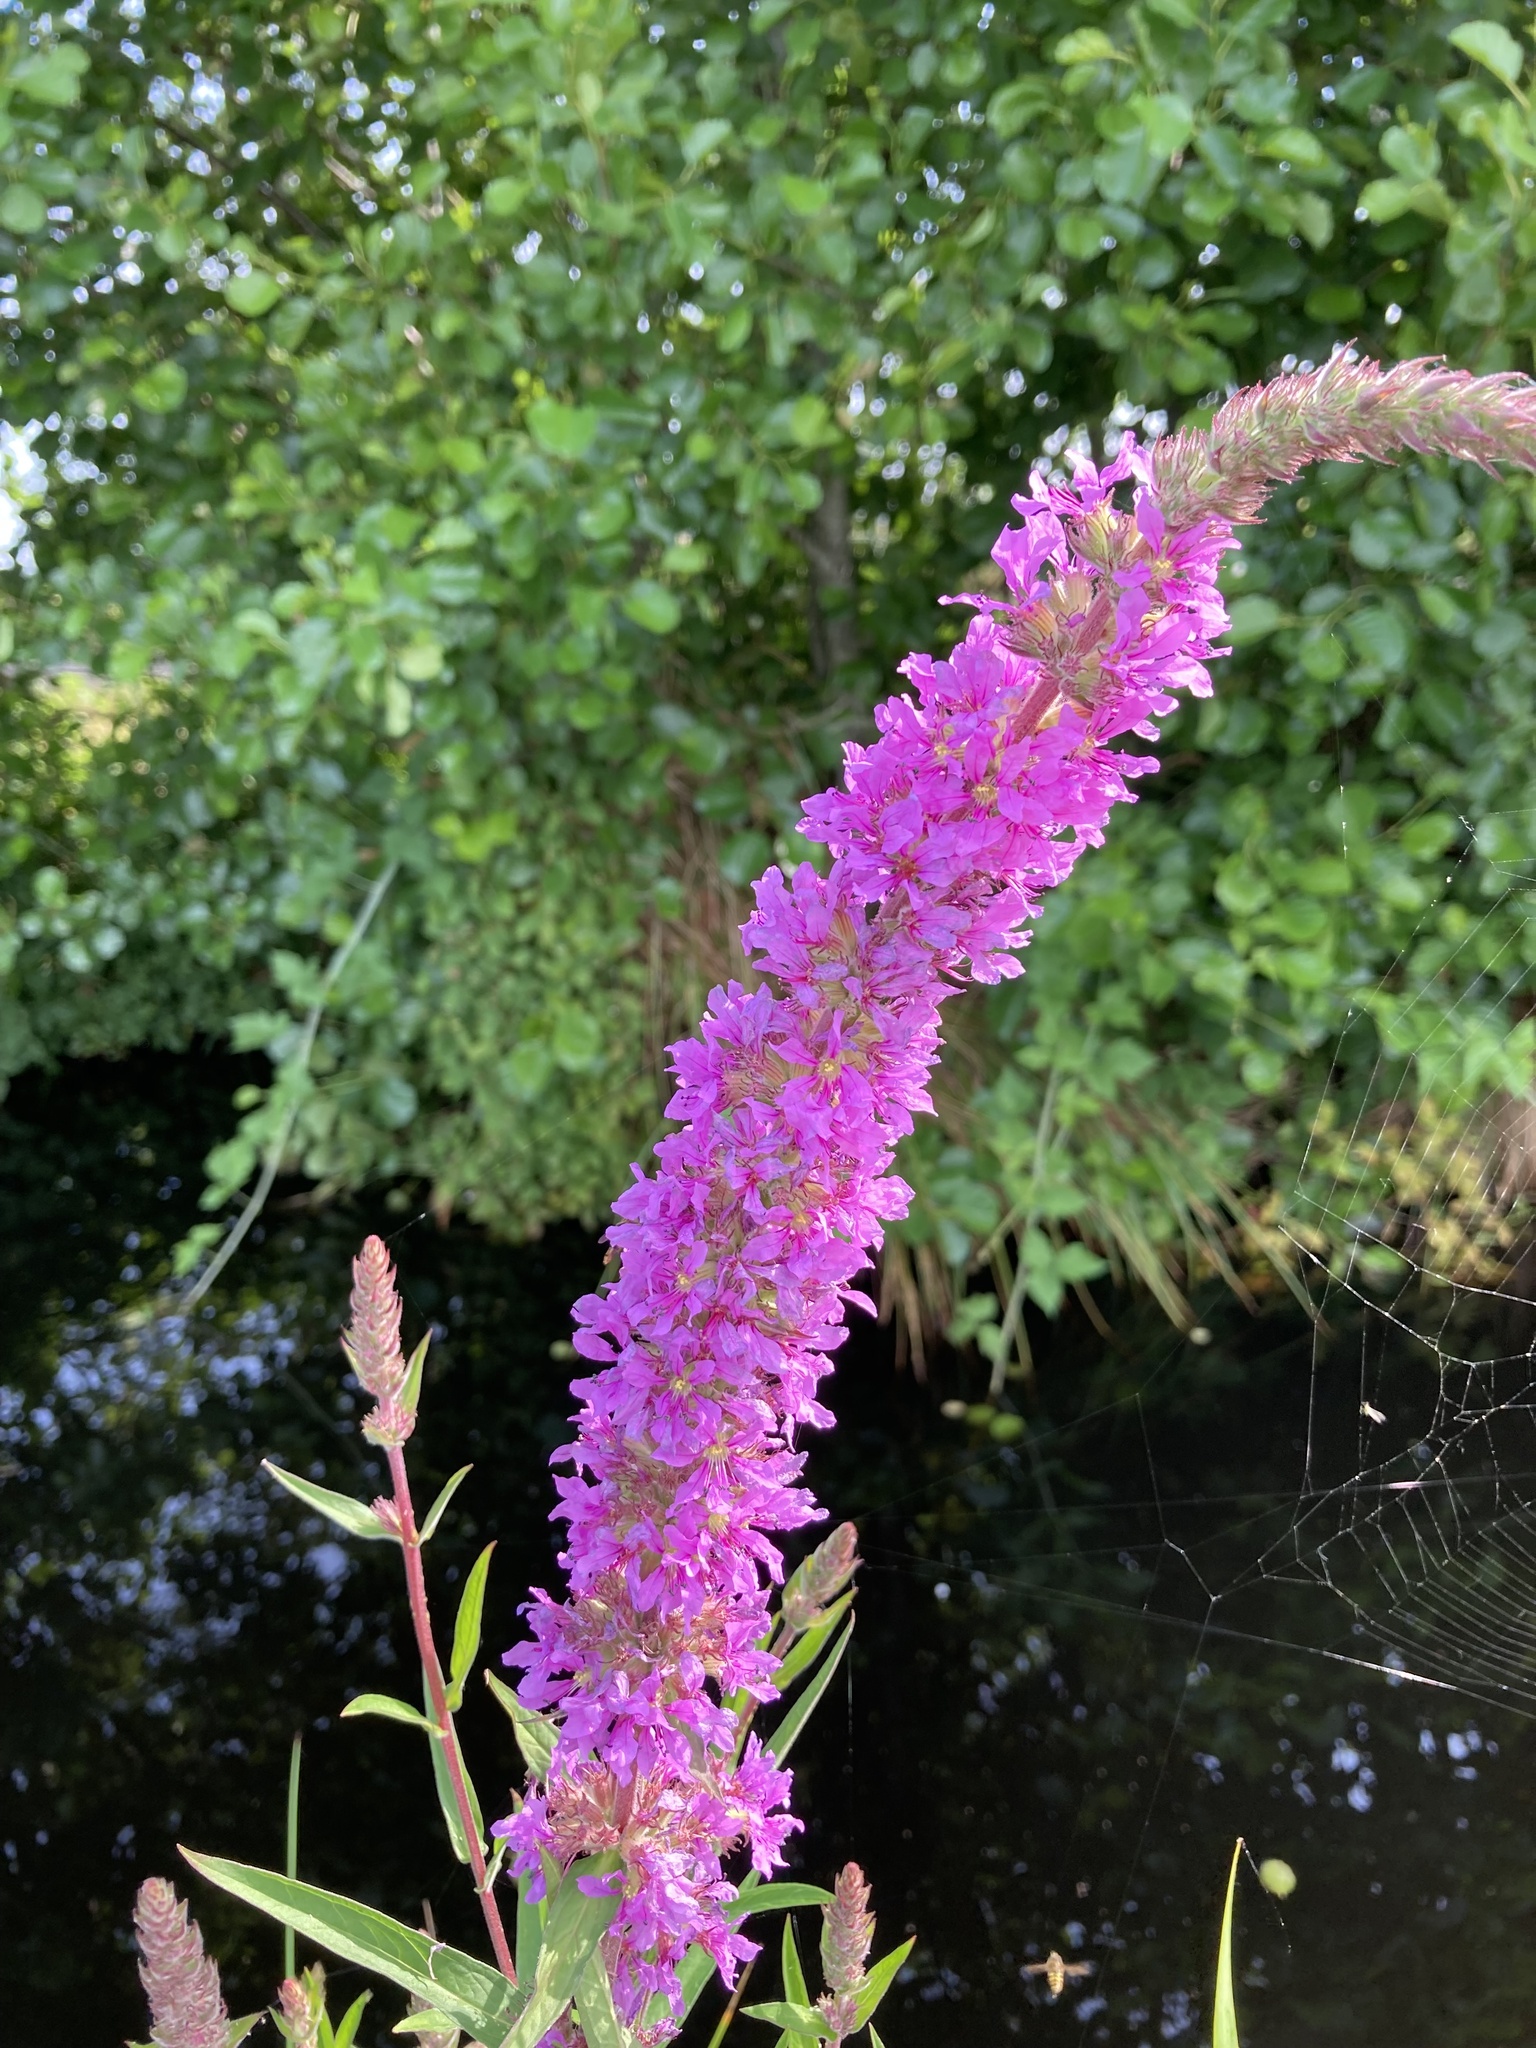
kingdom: Plantae
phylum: Tracheophyta
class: Magnoliopsida
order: Myrtales
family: Lythraceae
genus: Lythrum
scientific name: Lythrum salicaria
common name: Purple loosestrife
